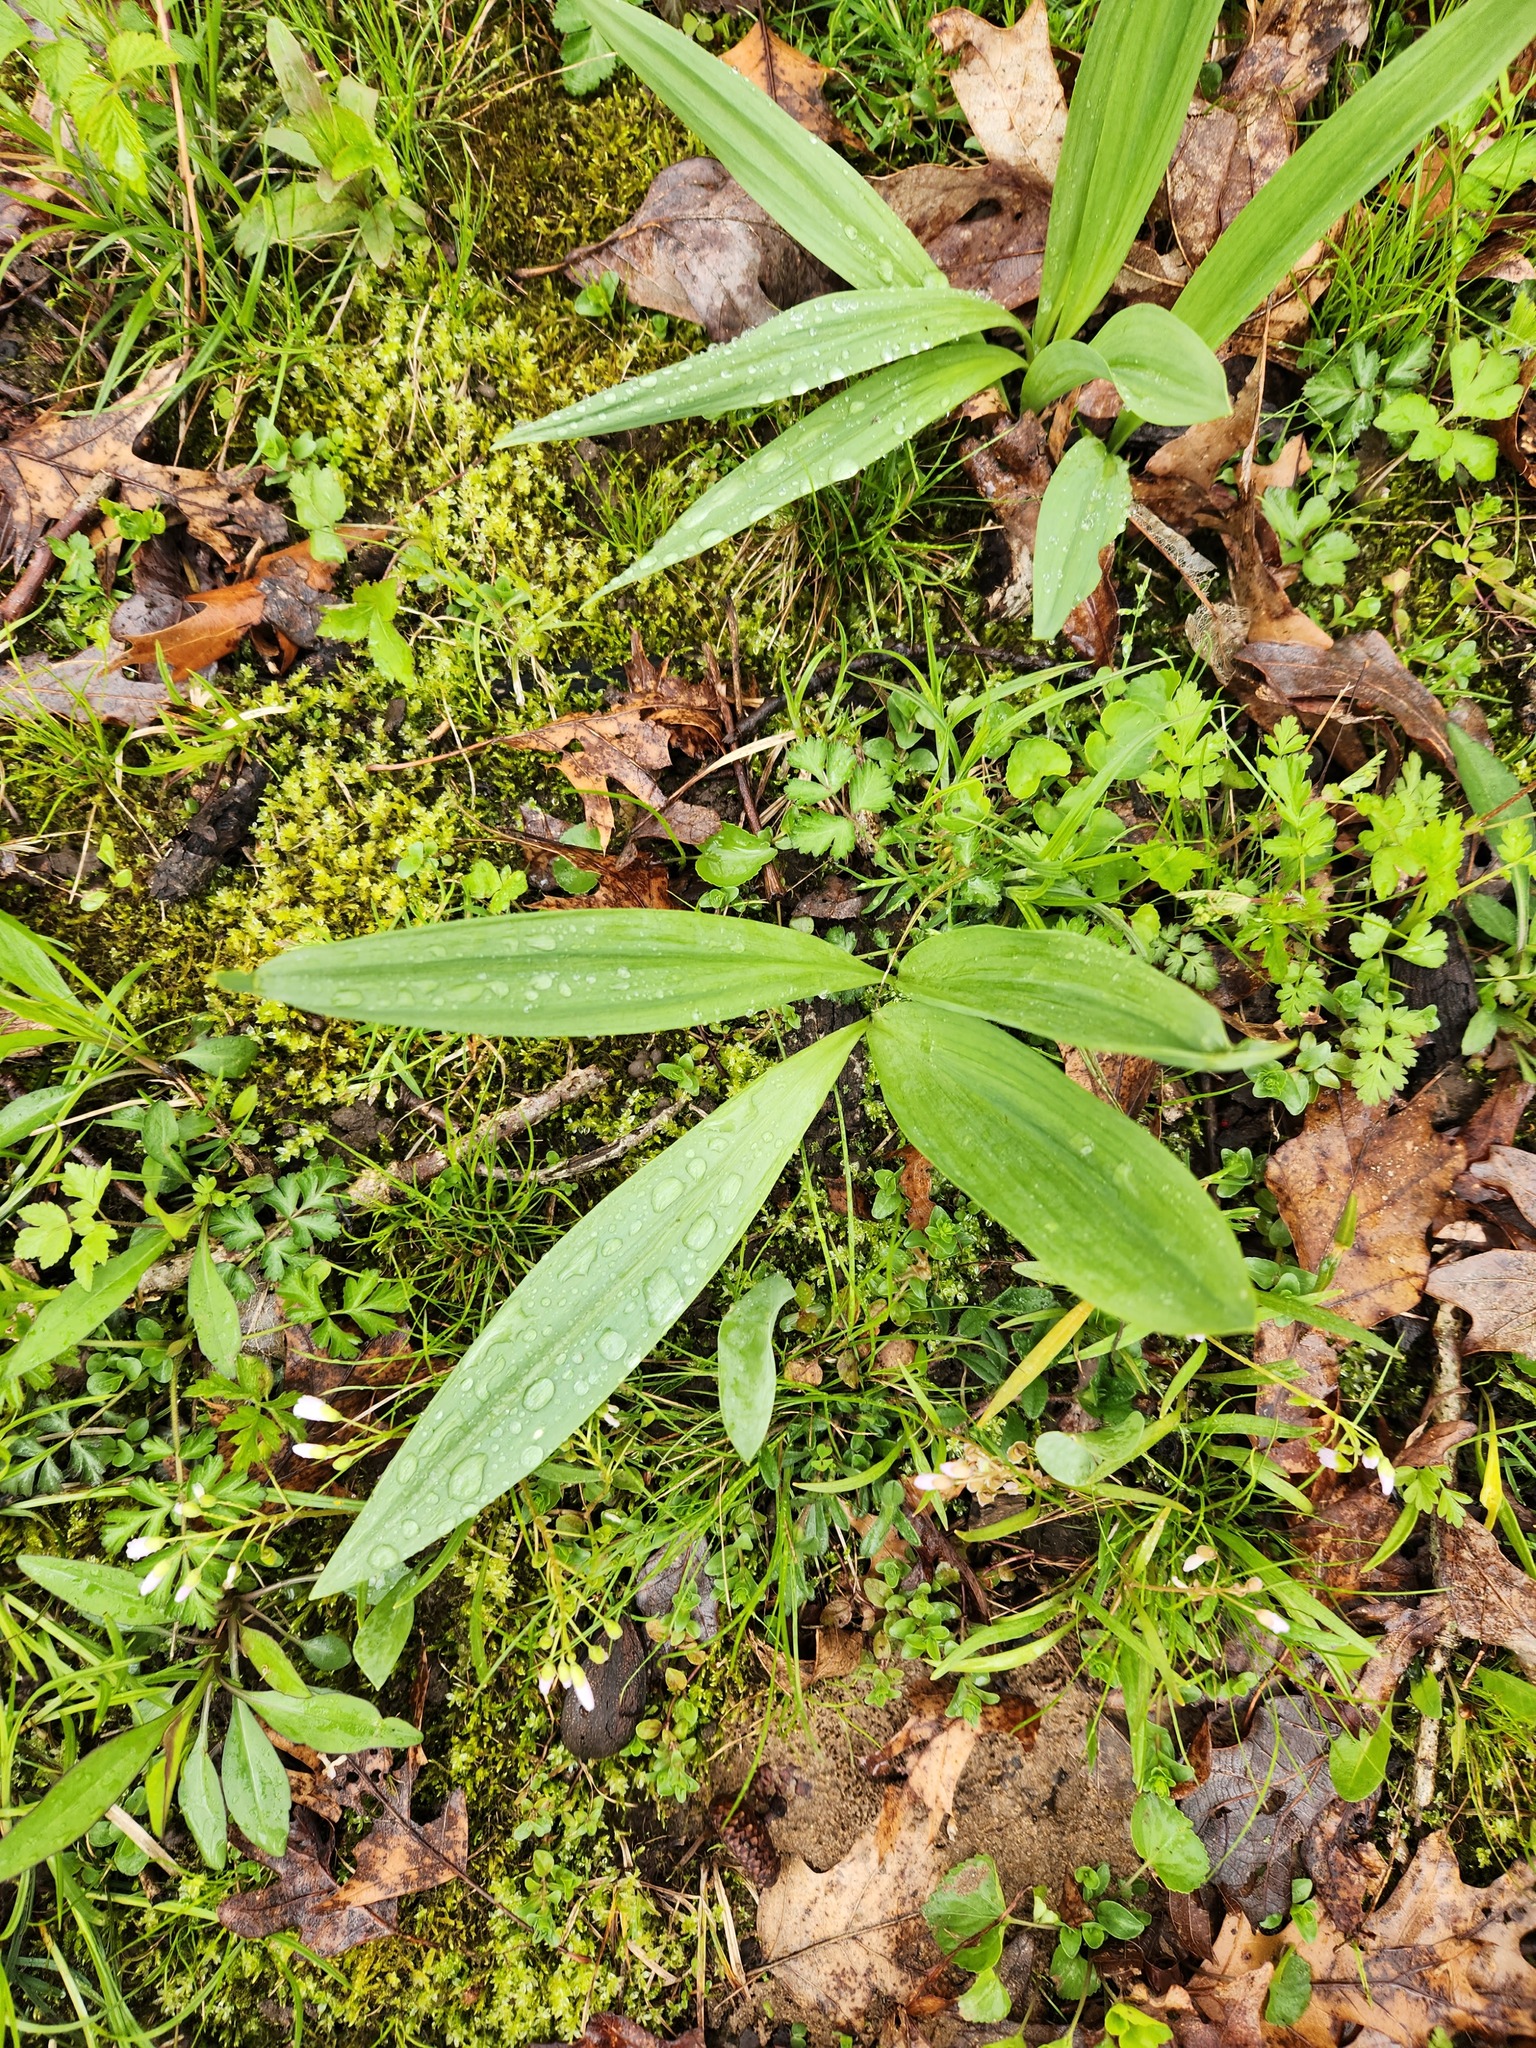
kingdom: Plantae
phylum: Tracheophyta
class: Liliopsida
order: Asparagales
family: Amaryllidaceae
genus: Allium
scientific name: Allium tricoccum
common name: Ramp
